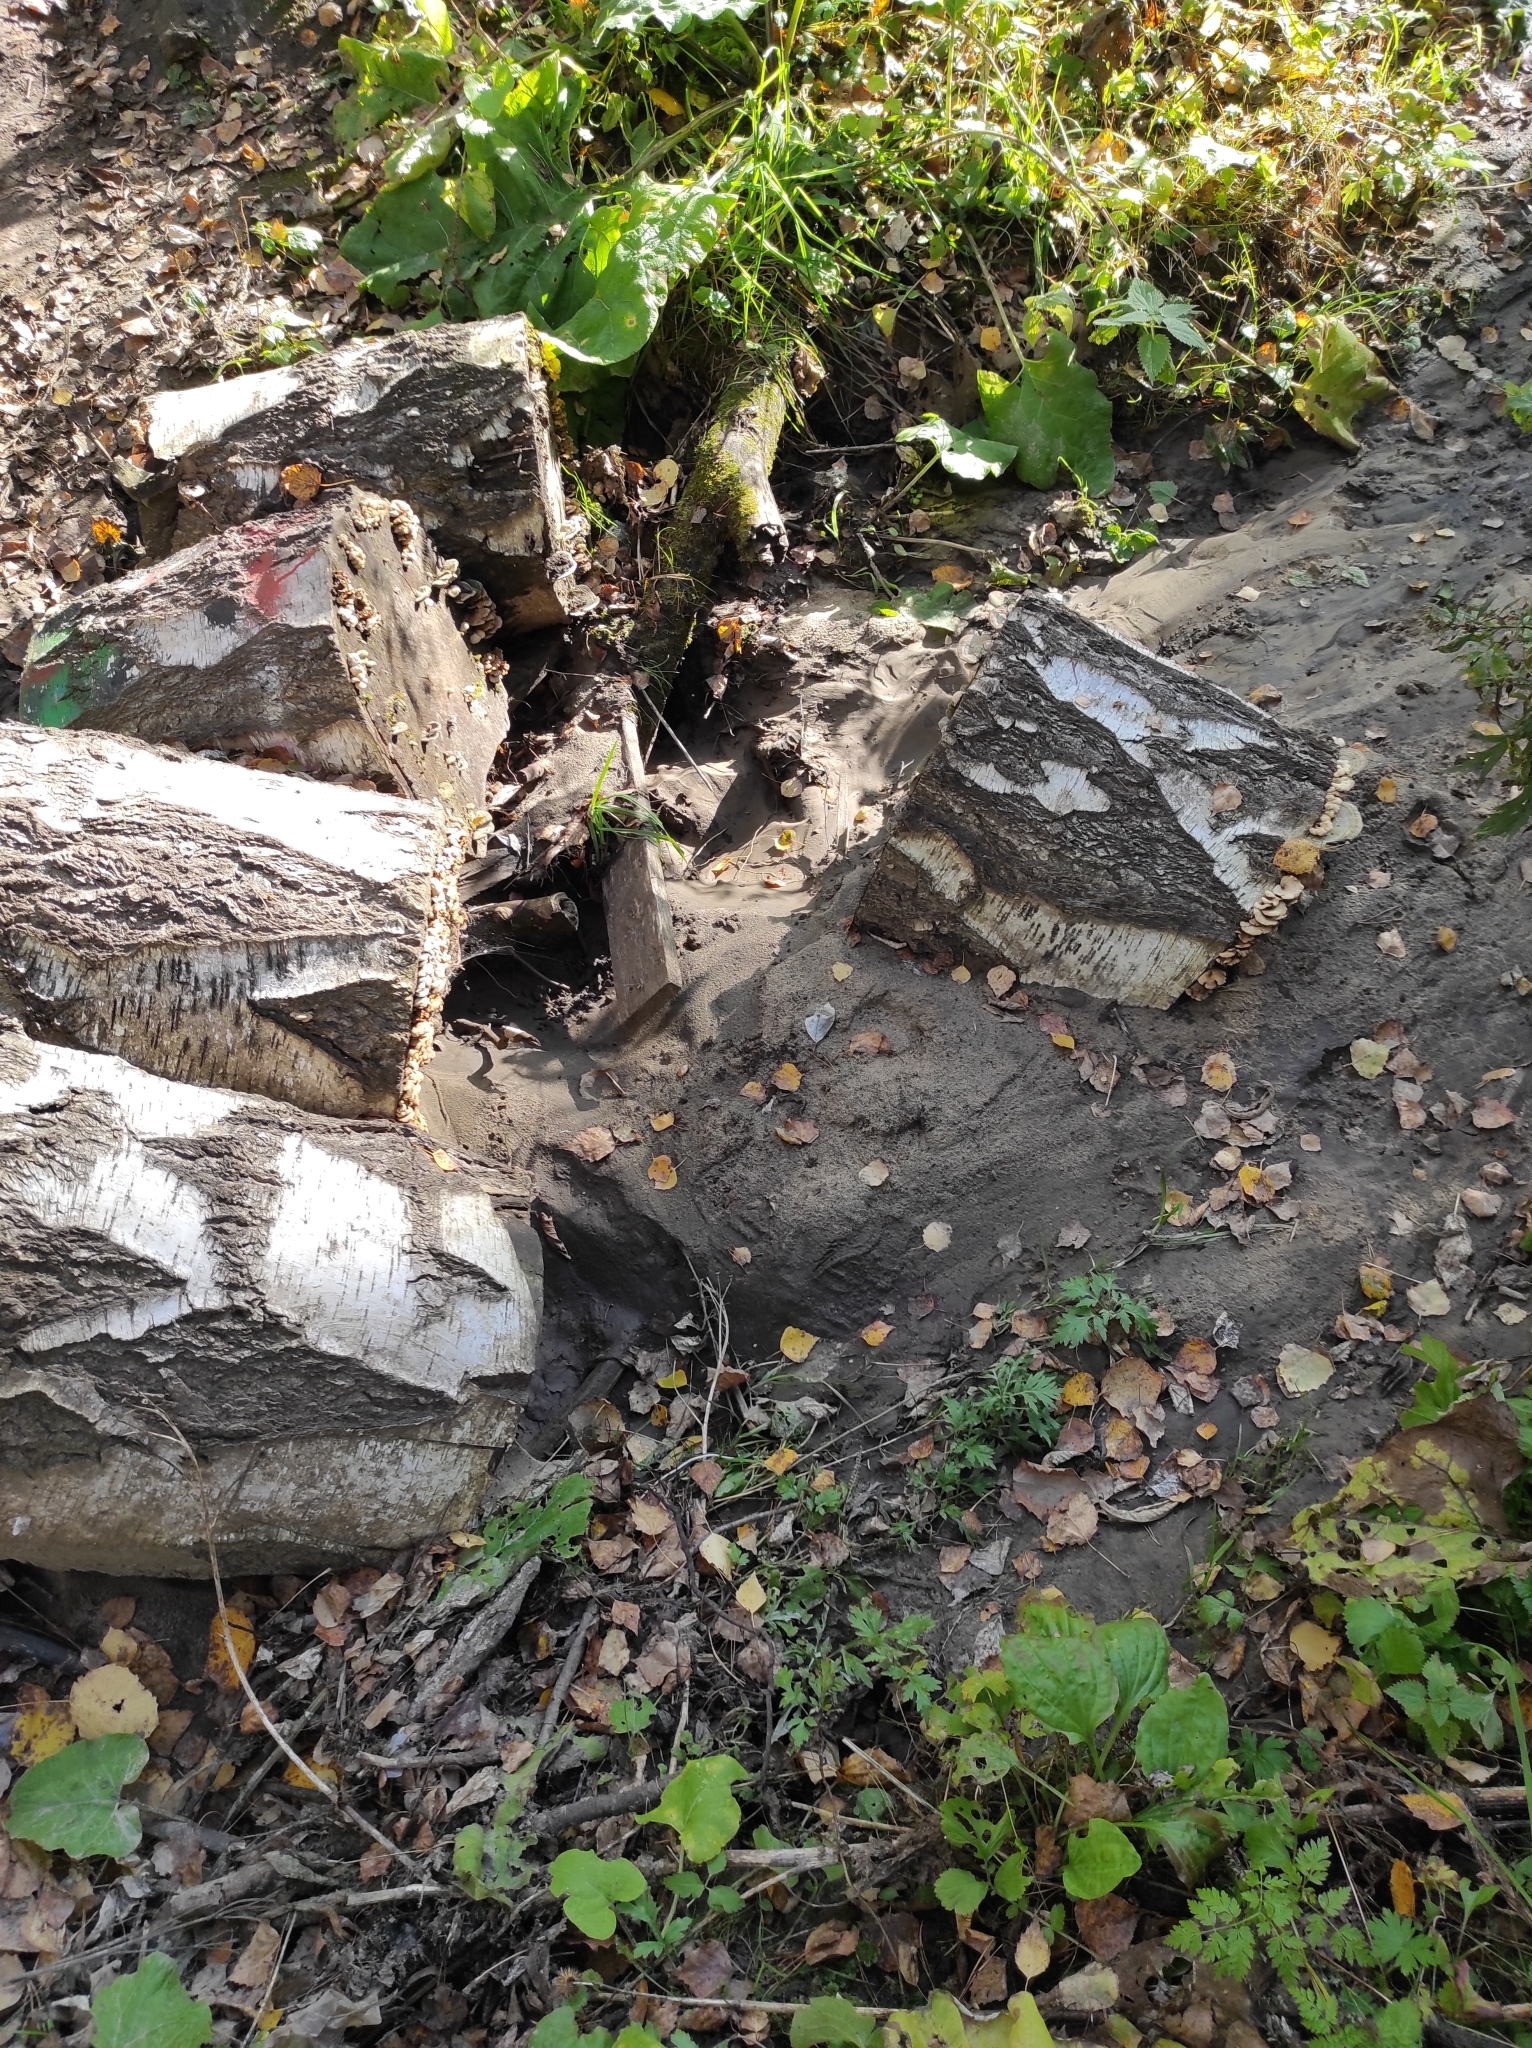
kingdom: Fungi
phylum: Ascomycota
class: Leotiomycetes
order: Helotiales
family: Pezizellaceae
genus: Calycina
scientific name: Calycina citrina
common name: Yellow fairy cups
